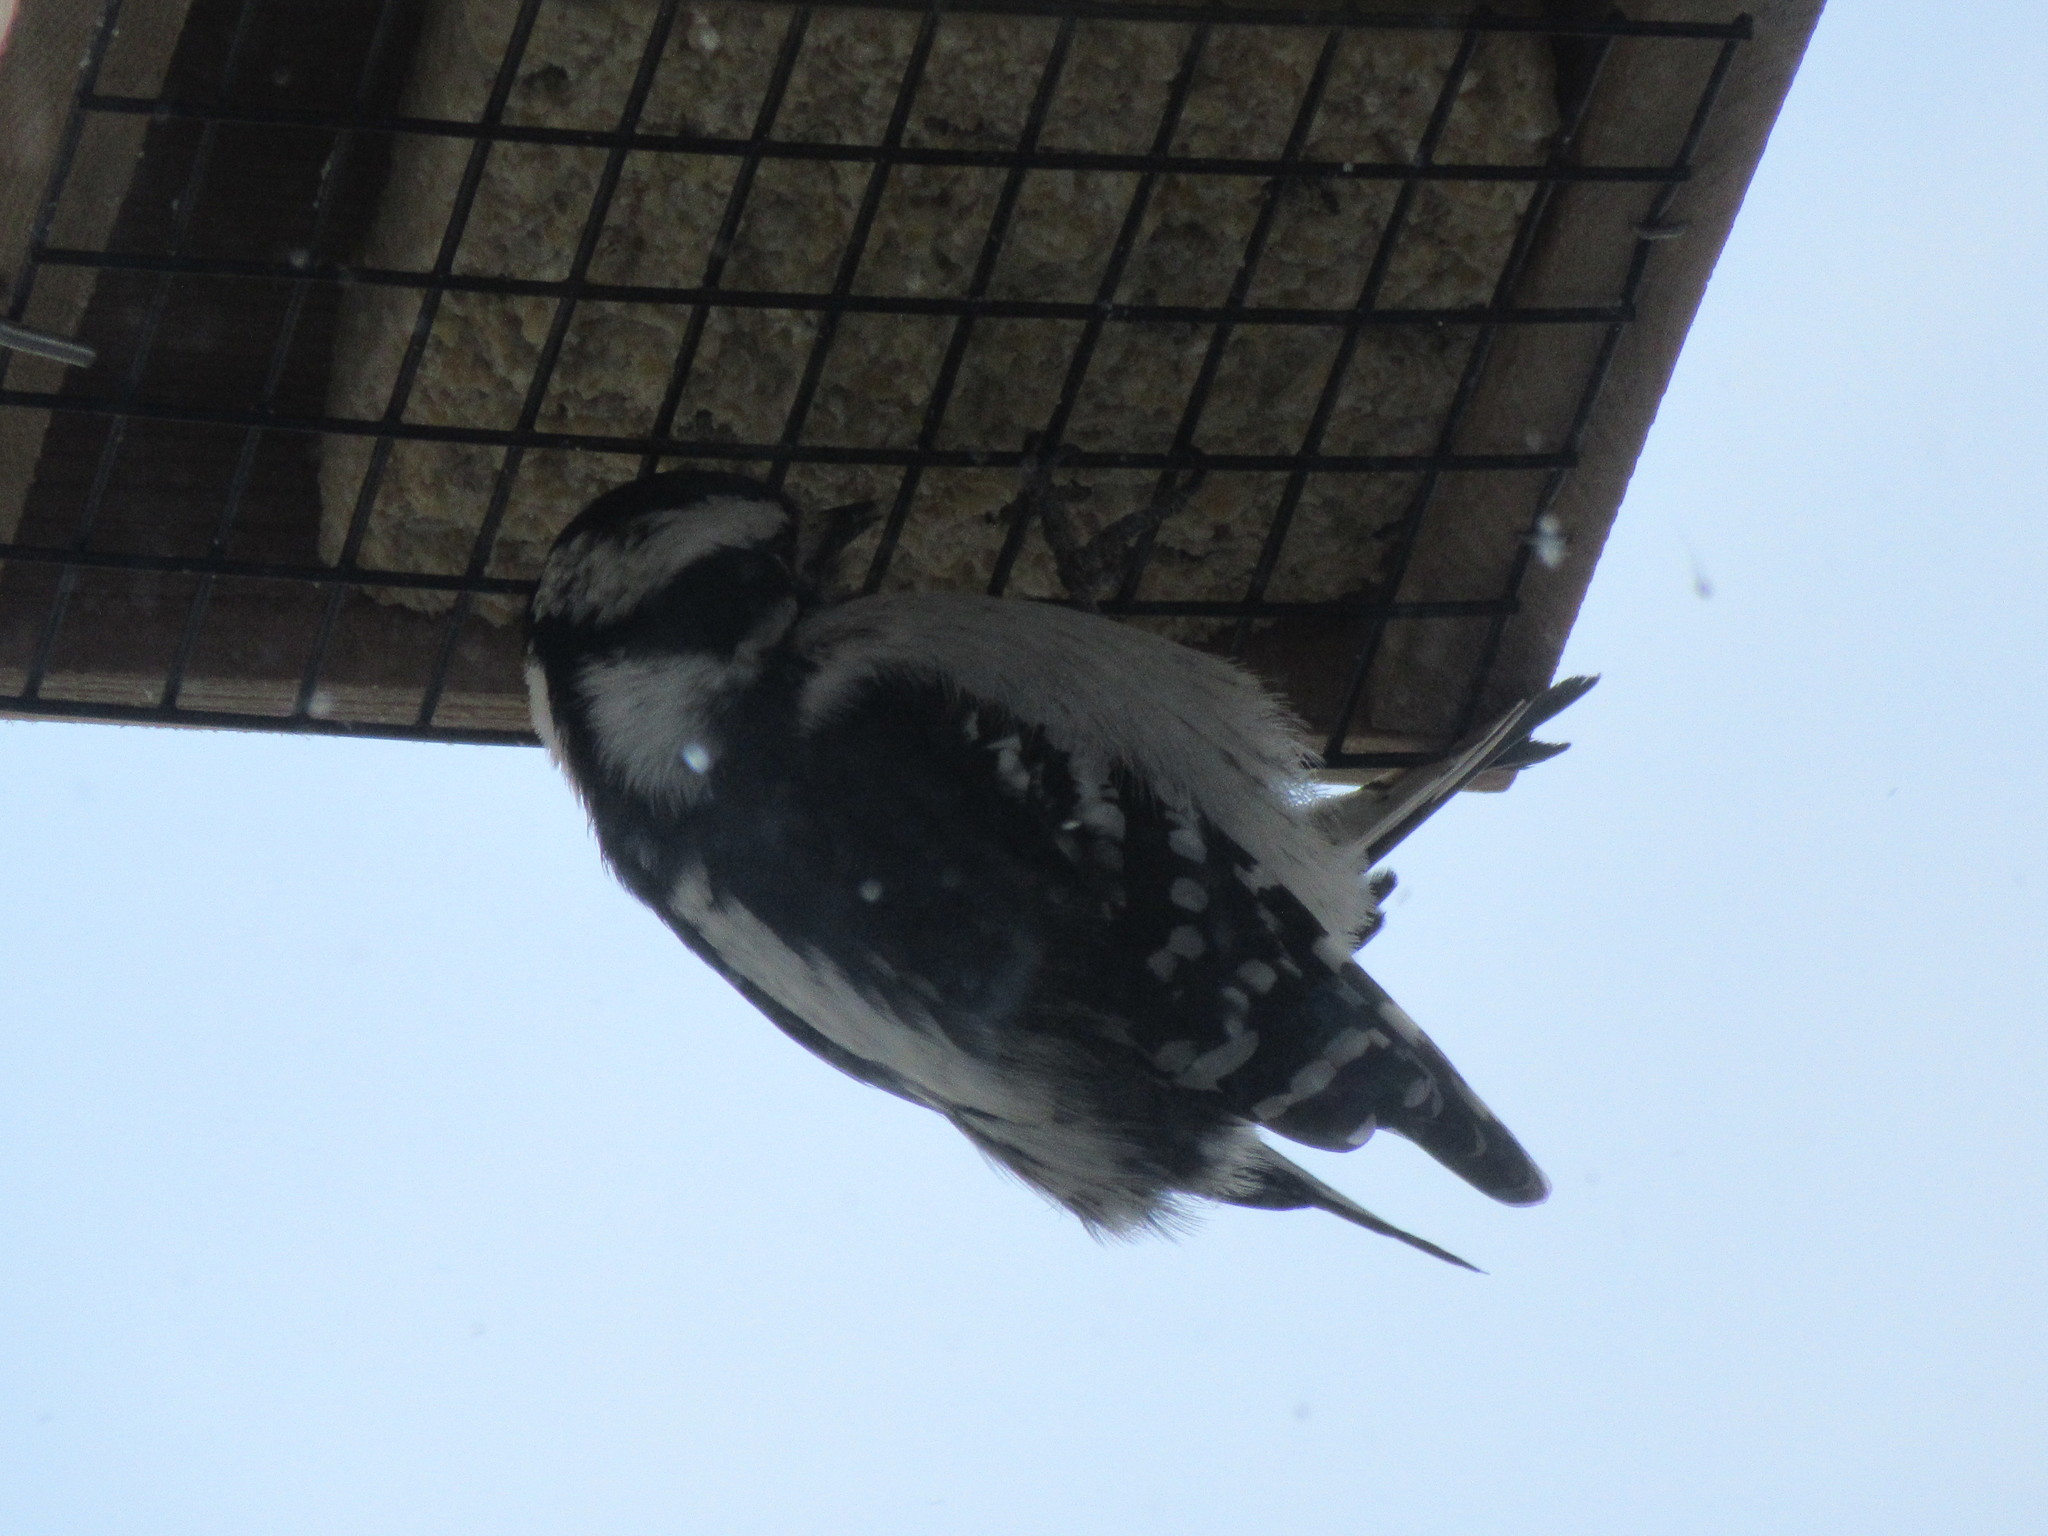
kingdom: Animalia
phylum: Chordata
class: Aves
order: Piciformes
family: Picidae
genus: Dryobates
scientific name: Dryobates pubescens
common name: Downy woodpecker
